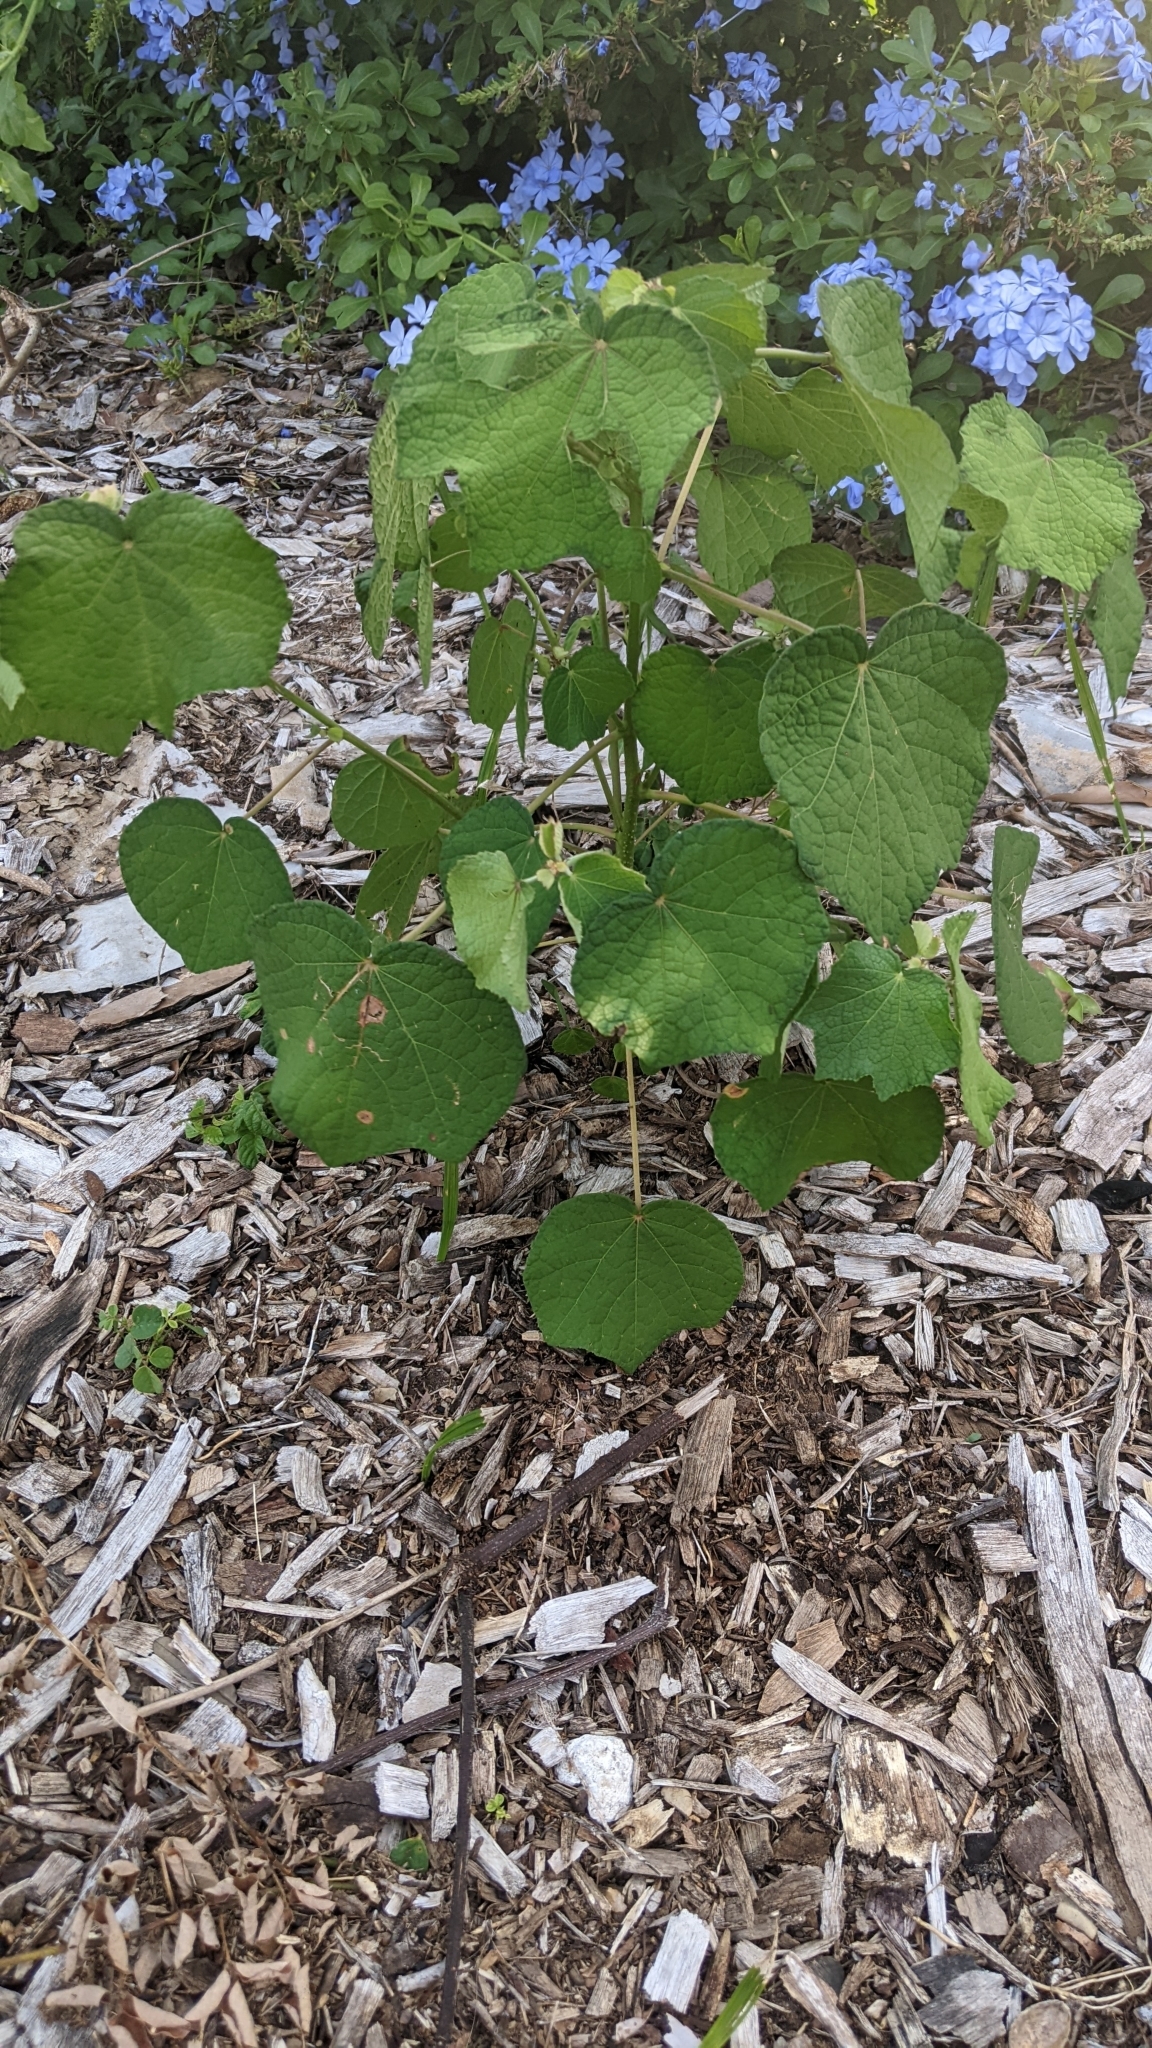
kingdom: Plantae
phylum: Tracheophyta
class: Magnoliopsida
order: Malvales
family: Malvaceae
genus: Urena
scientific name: Urena lobata
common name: Caesarweed
